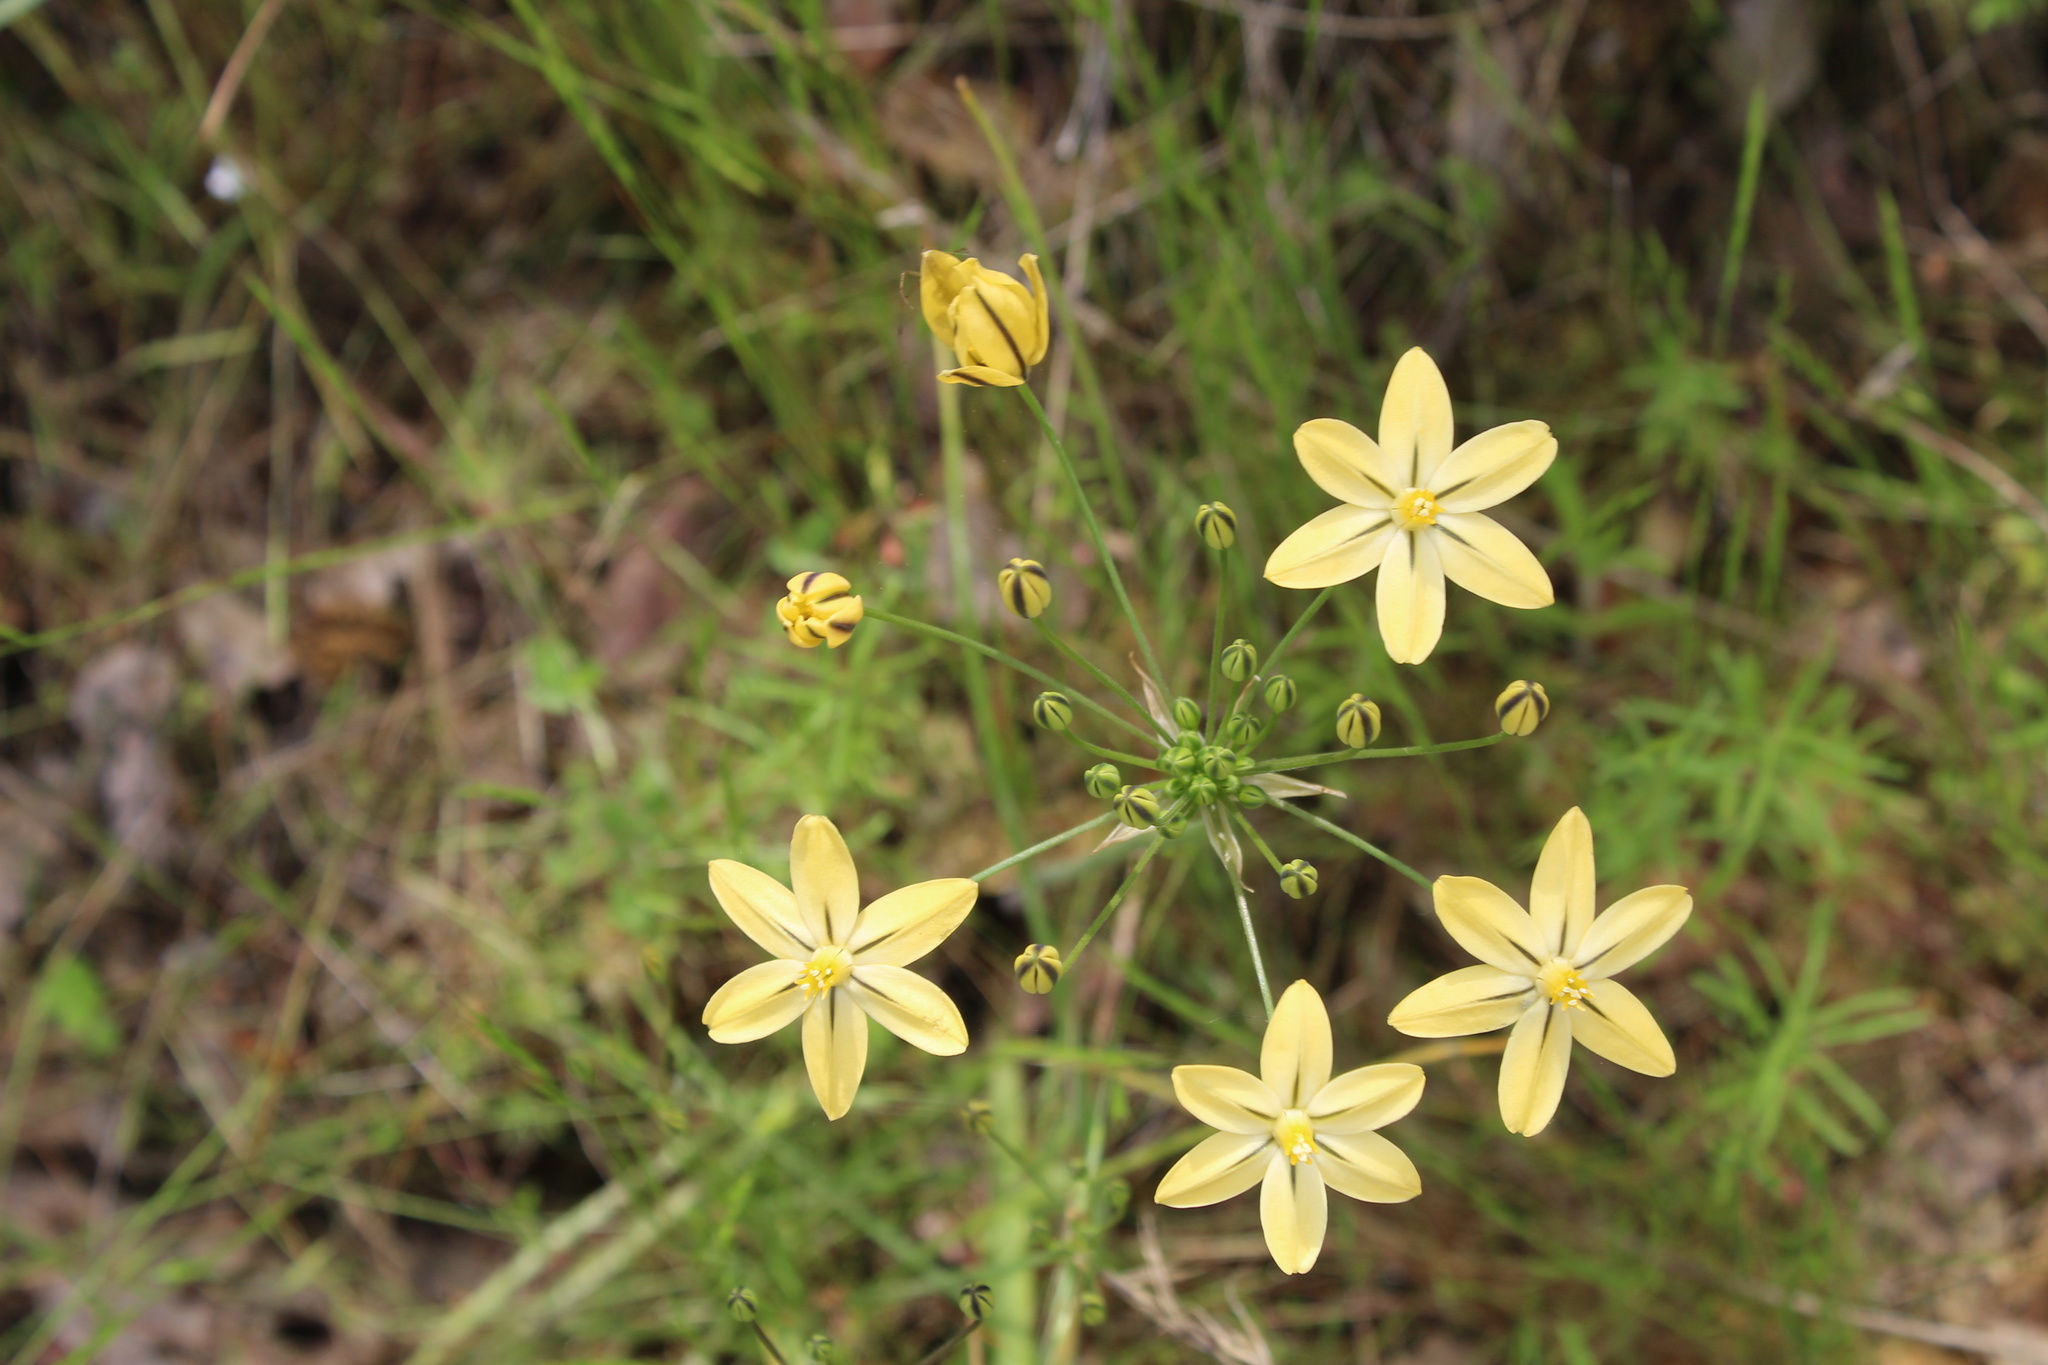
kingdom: Plantae
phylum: Tracheophyta
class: Liliopsida
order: Asparagales
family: Asparagaceae
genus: Triteleia
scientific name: Triteleia ixioides
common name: Yellow-brodiaea
